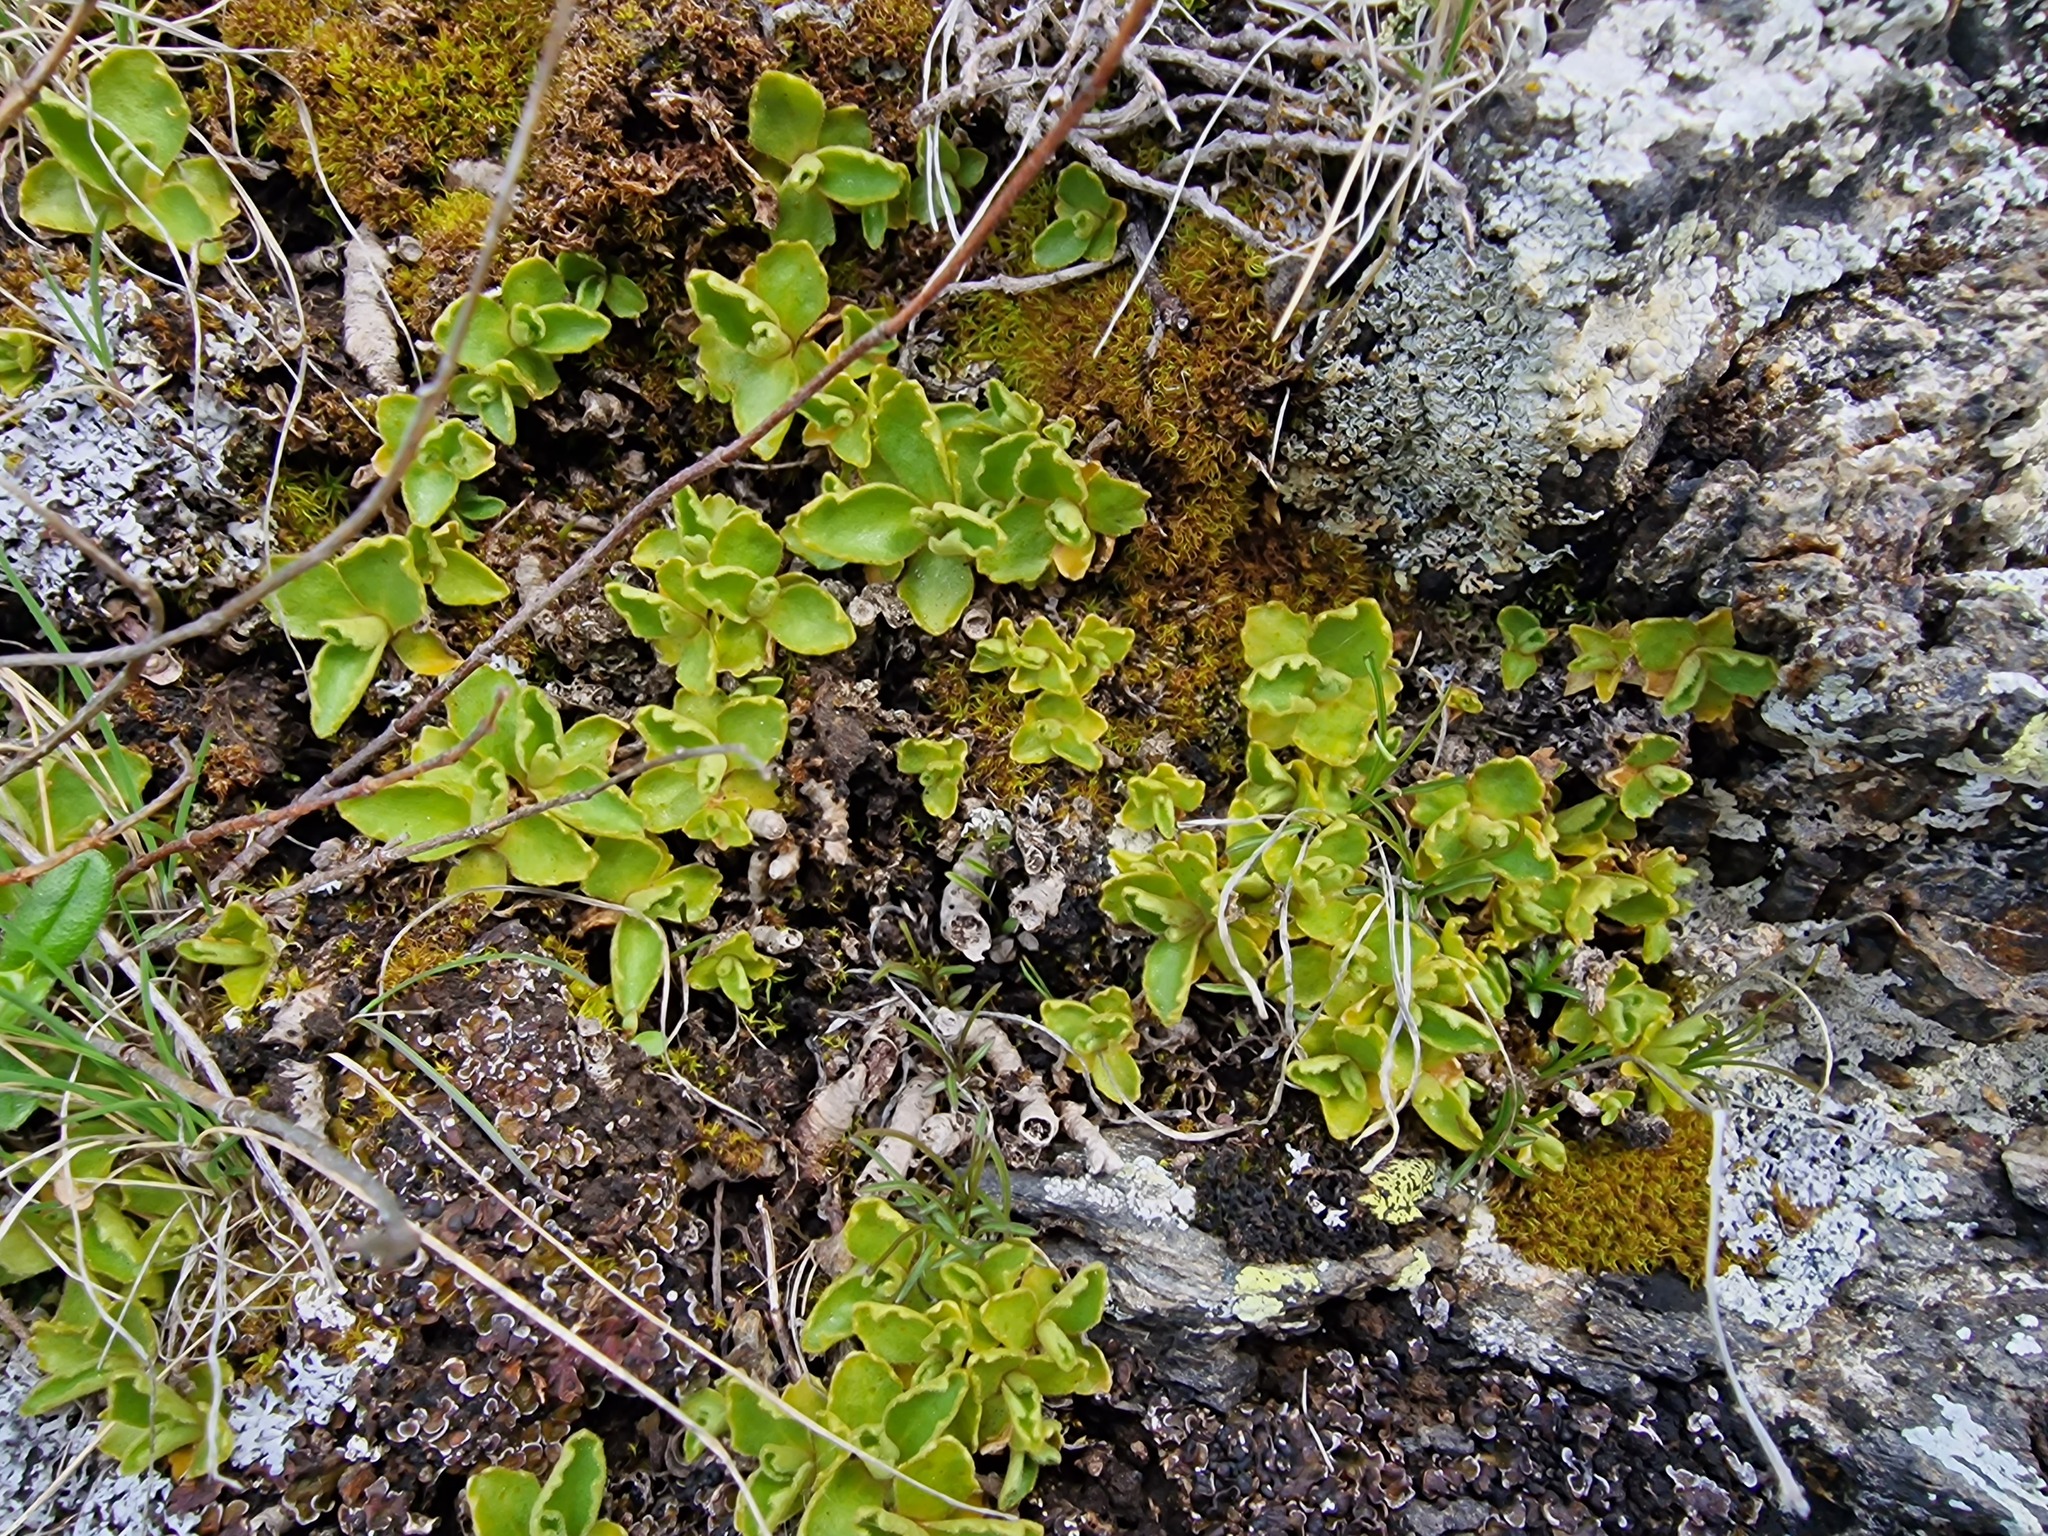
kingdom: Plantae
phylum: Tracheophyta
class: Magnoliopsida
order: Ericales
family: Primulaceae
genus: Primula
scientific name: Primula hirsuta
